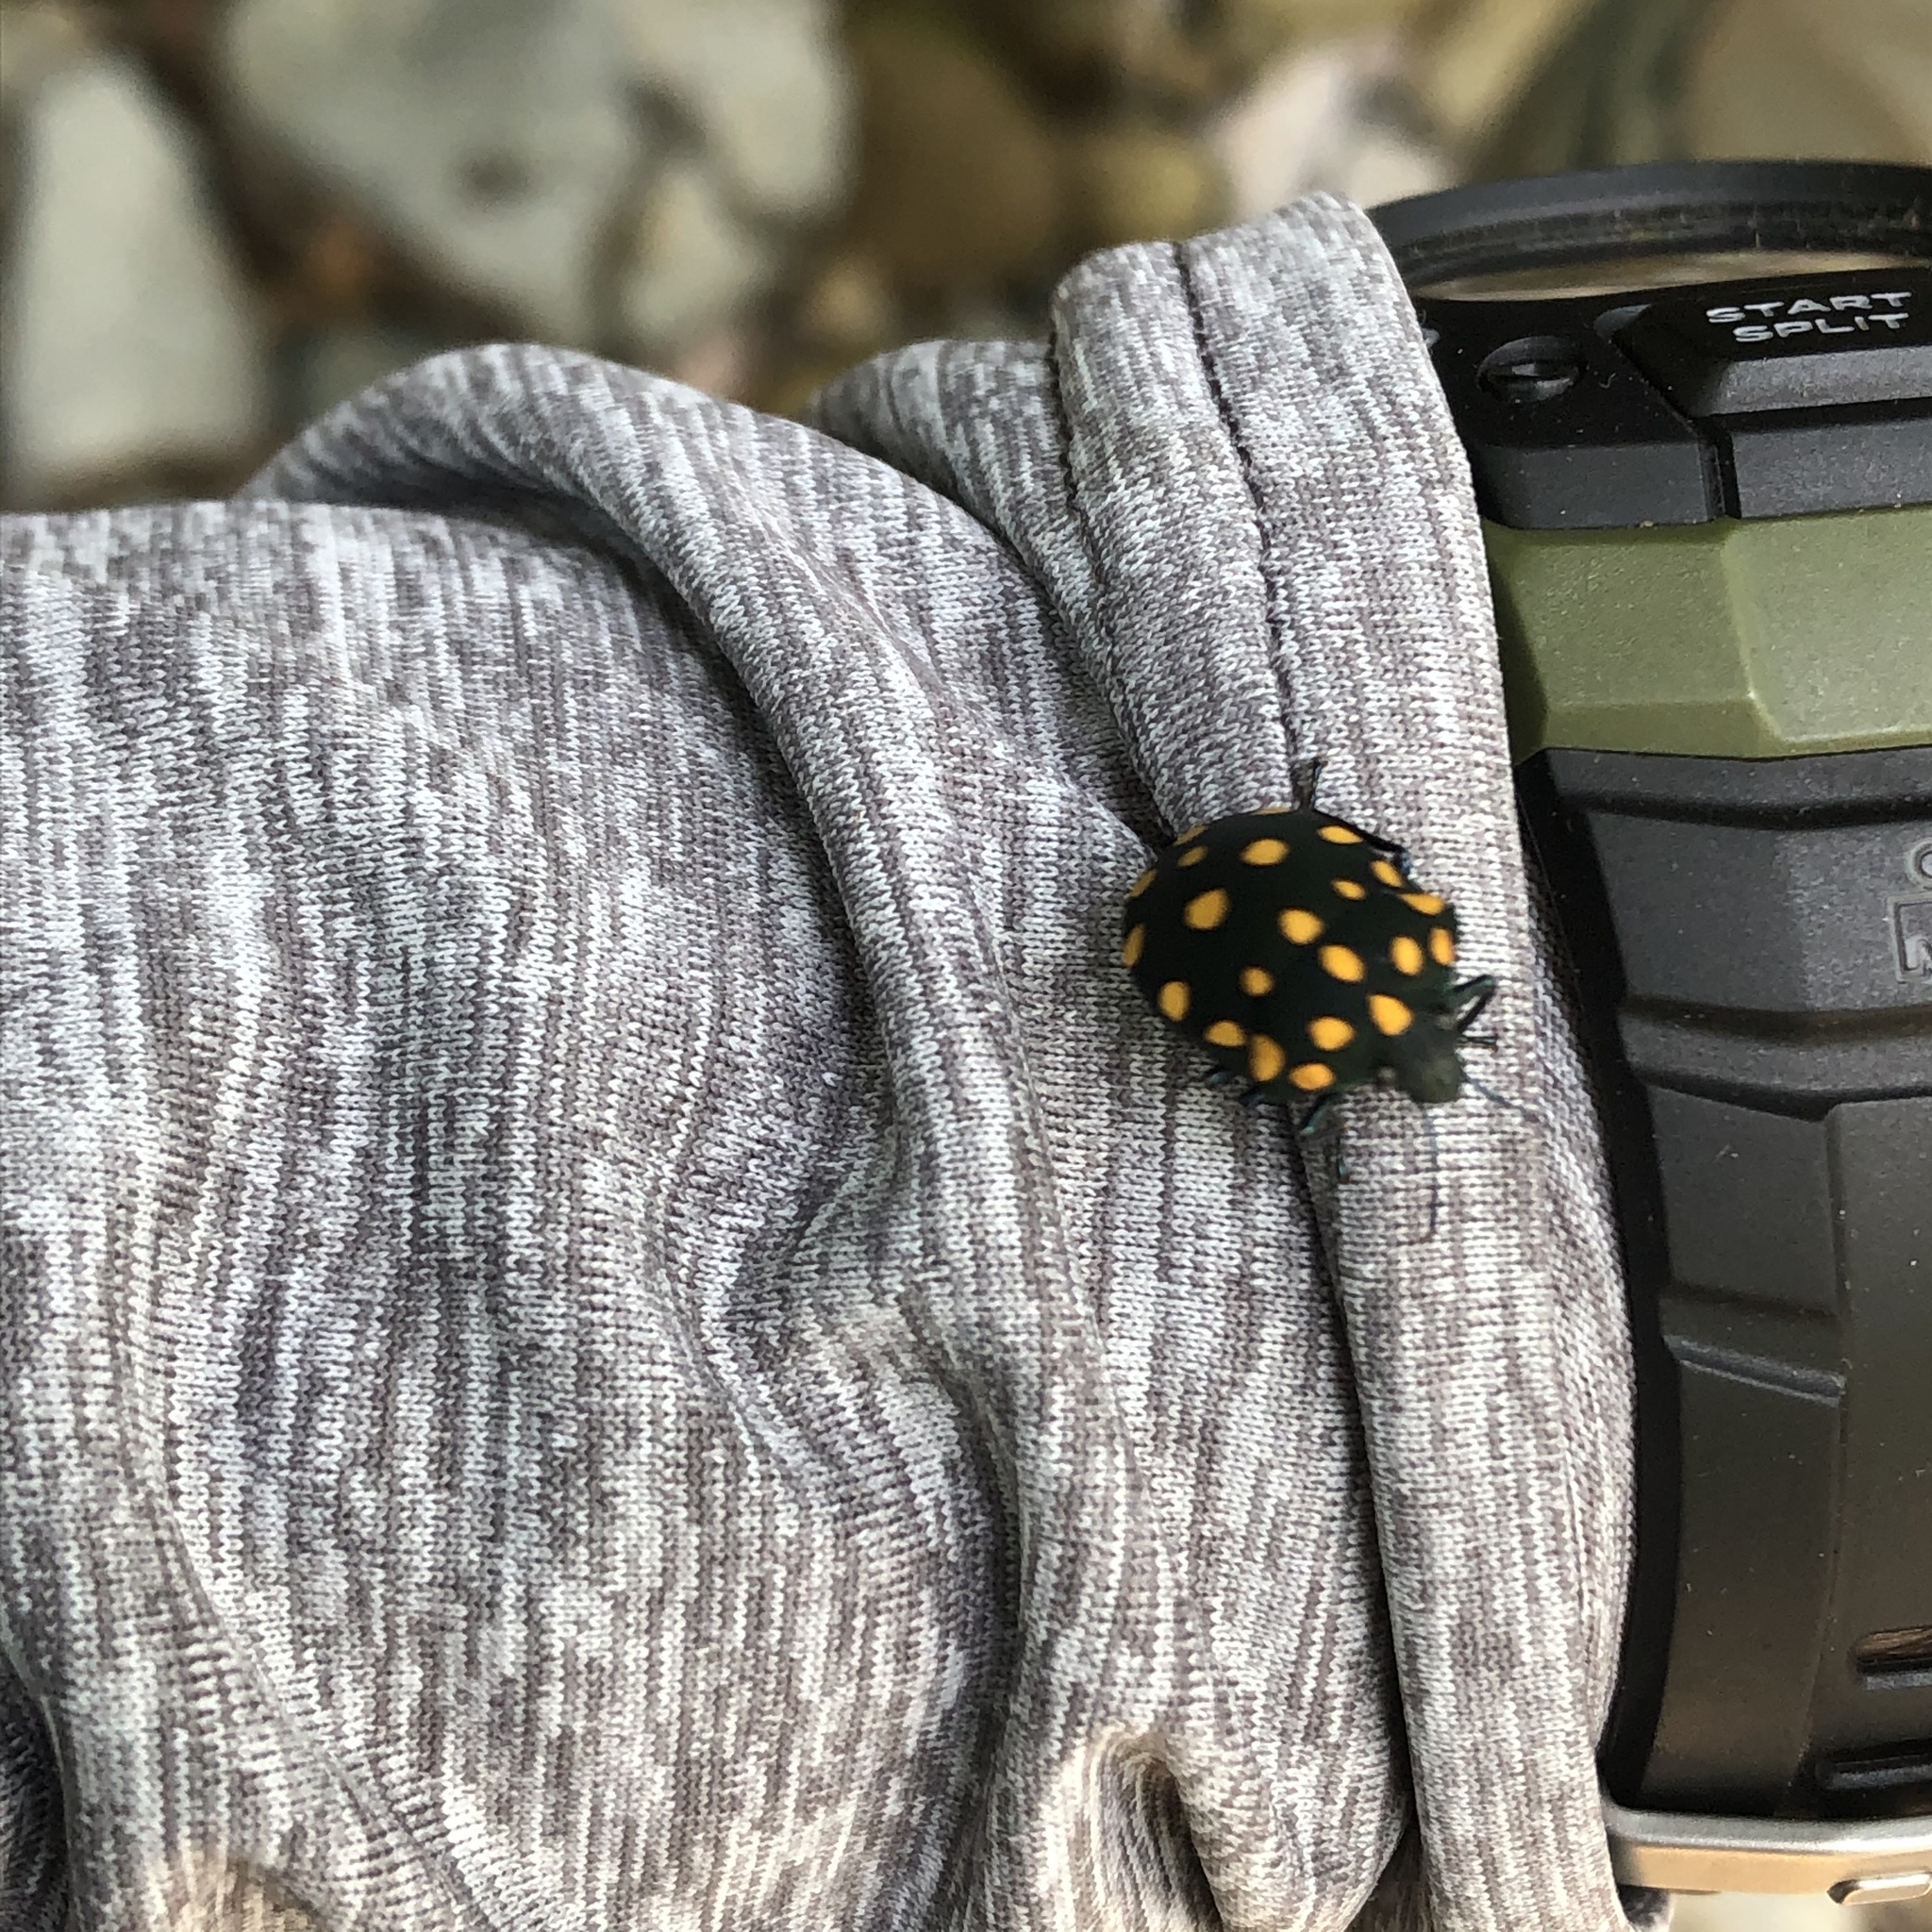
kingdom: Animalia
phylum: Arthropoda
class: Insecta
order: Hemiptera
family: Scutelleridae
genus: Pachycoris
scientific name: Pachycoris torridus
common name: Torrid jewel bug
